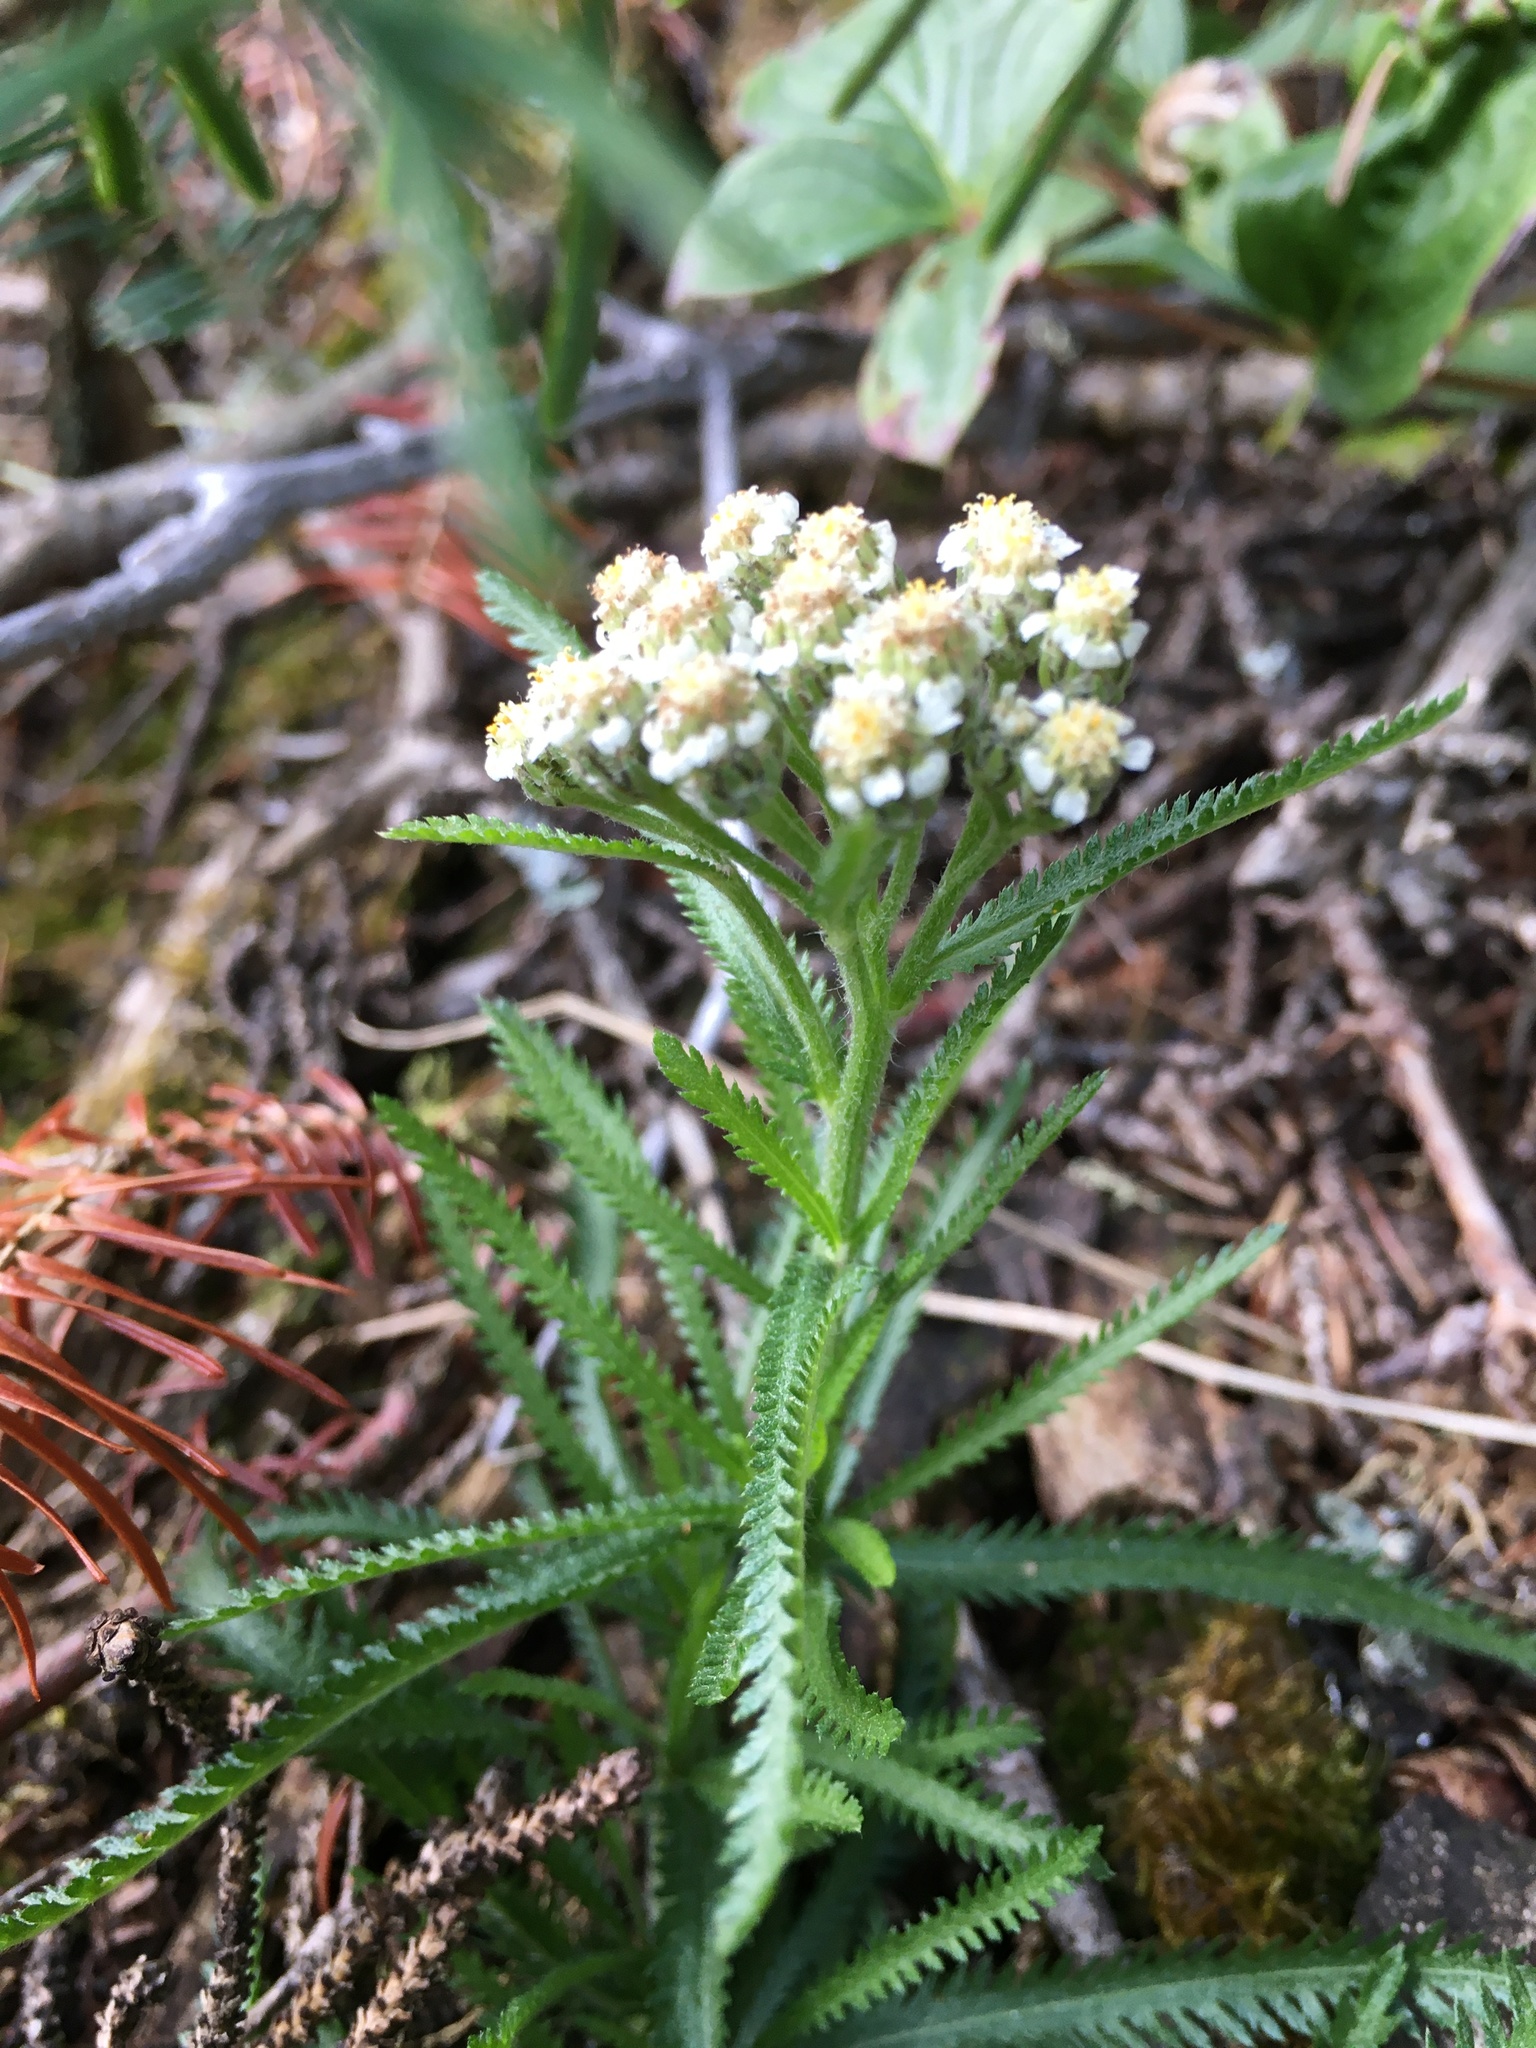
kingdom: Plantae
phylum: Tracheophyta
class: Magnoliopsida
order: Asterales
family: Asteraceae
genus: Achillea
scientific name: Achillea alpina
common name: Siberian yarrow
